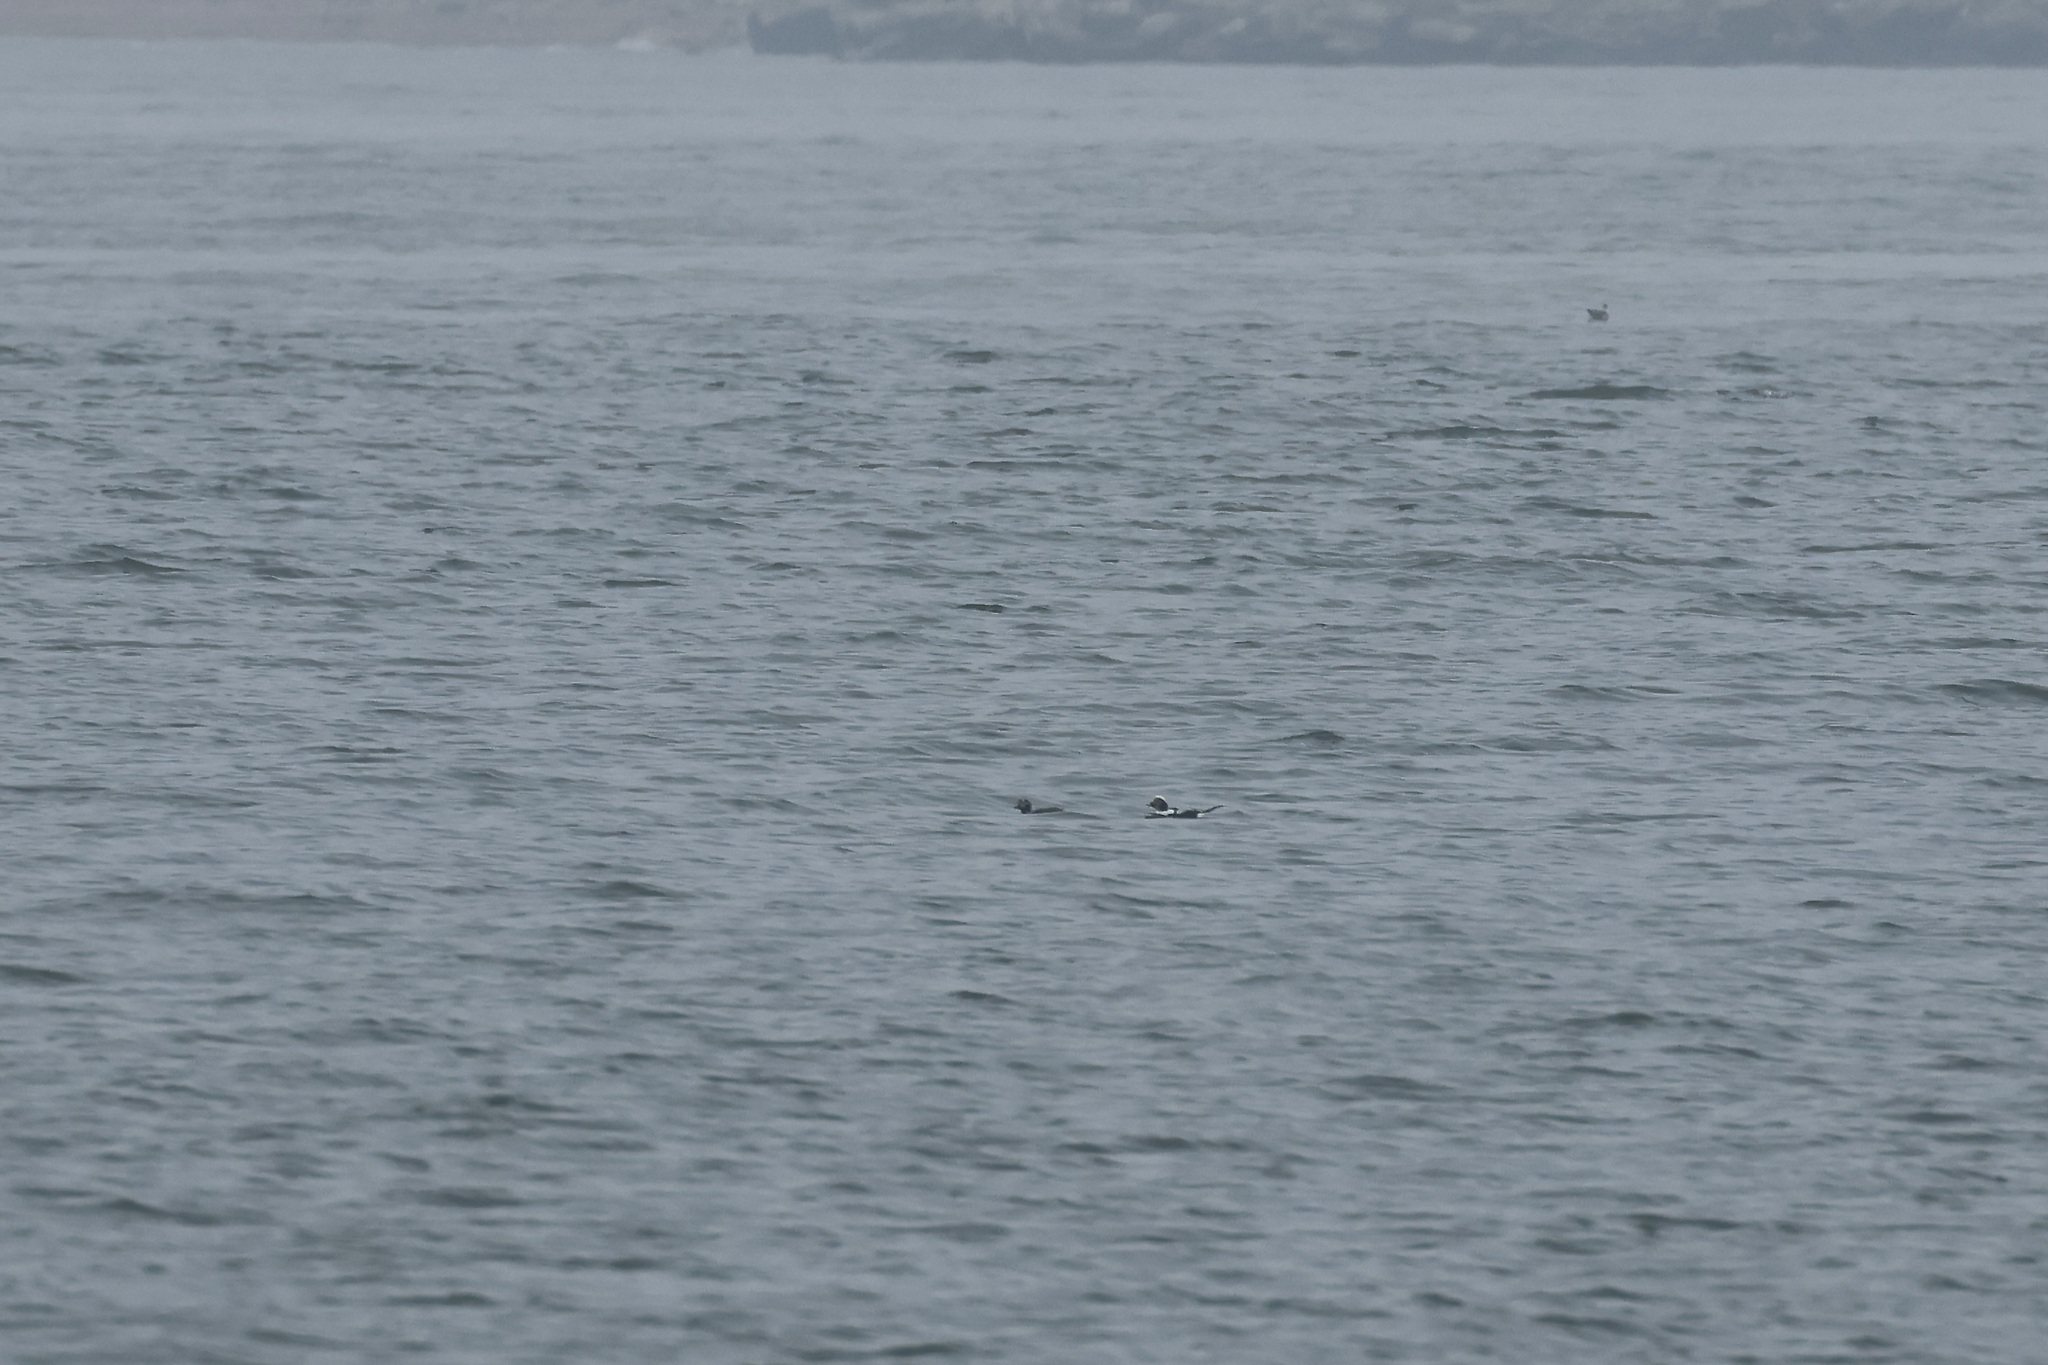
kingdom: Animalia
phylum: Chordata
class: Aves
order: Anseriformes
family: Anatidae
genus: Clangula
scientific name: Clangula hyemalis
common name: Long-tailed duck
